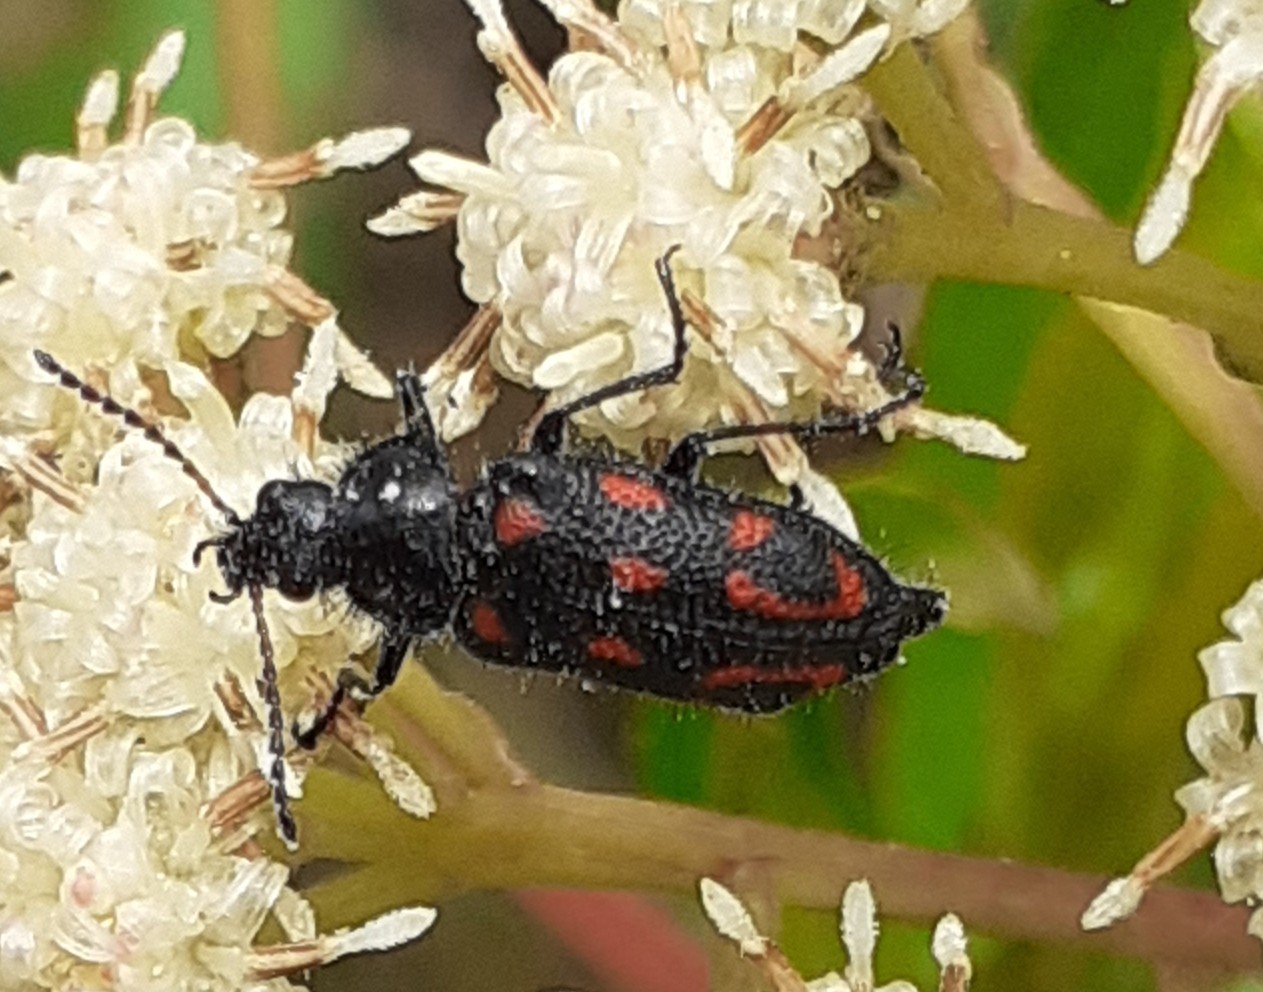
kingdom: Animalia
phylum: Arthropoda
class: Insecta
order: Coleoptera
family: Melyridae
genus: Astylus
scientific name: Astylus
